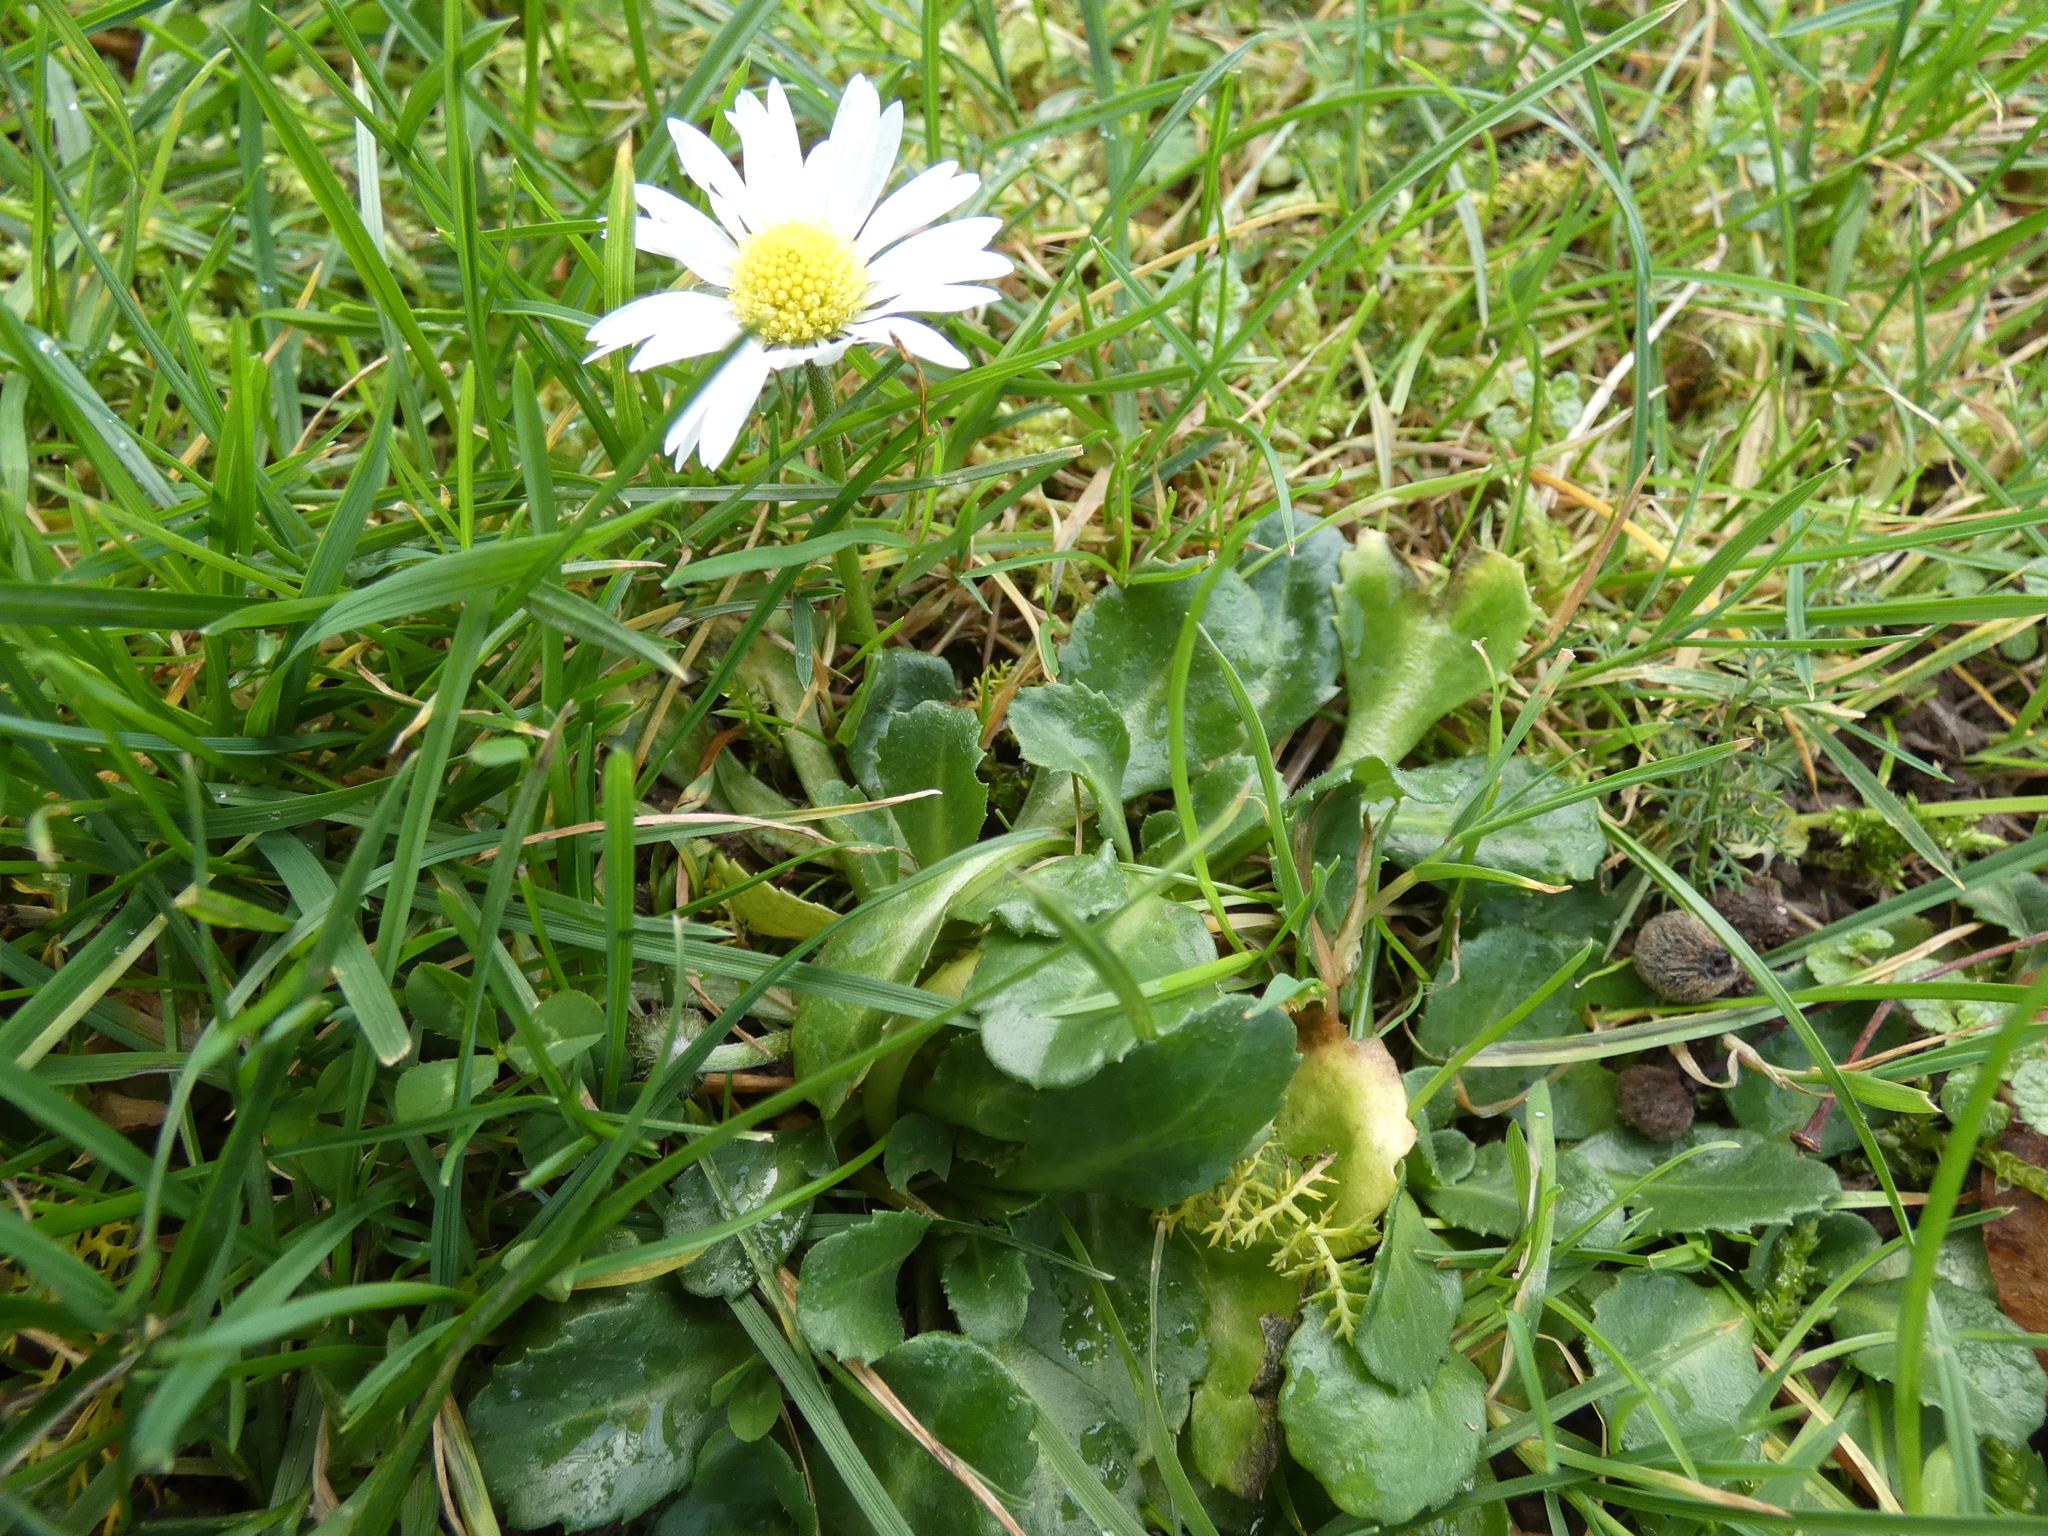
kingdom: Plantae
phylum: Tracheophyta
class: Magnoliopsida
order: Asterales
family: Asteraceae
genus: Bellis
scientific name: Bellis perennis
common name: Lawndaisy
